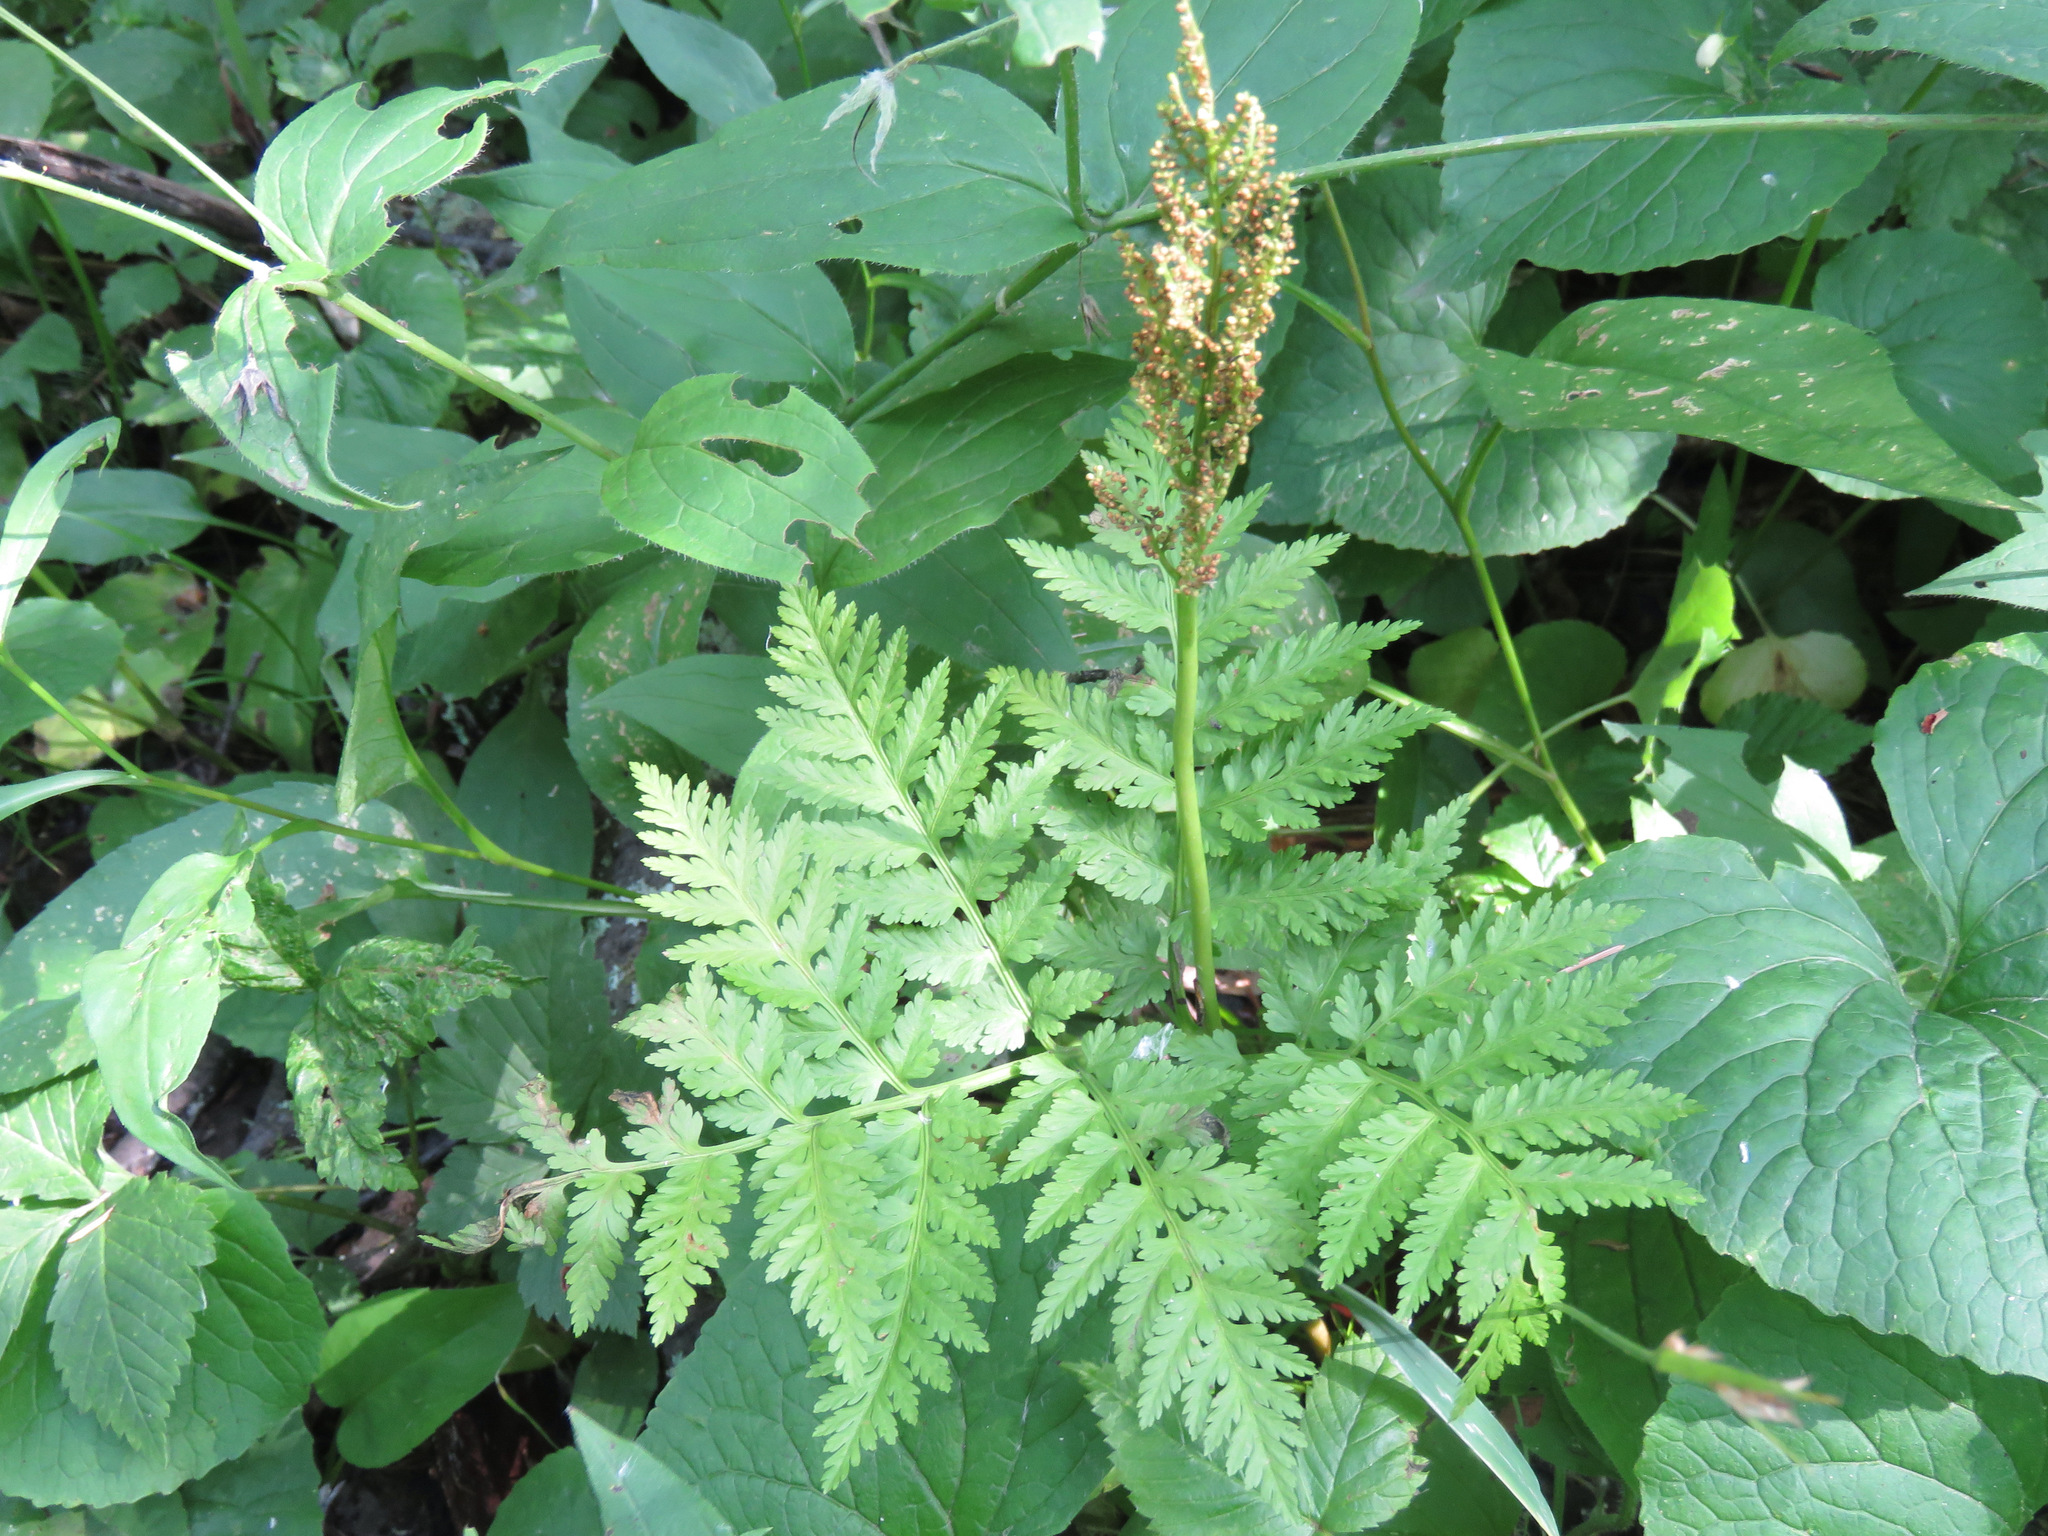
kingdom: Plantae
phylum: Tracheophyta
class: Polypodiopsida
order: Ophioglossales
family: Ophioglossaceae
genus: Botrypus
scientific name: Botrypus virginianus
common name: Common grapefern
